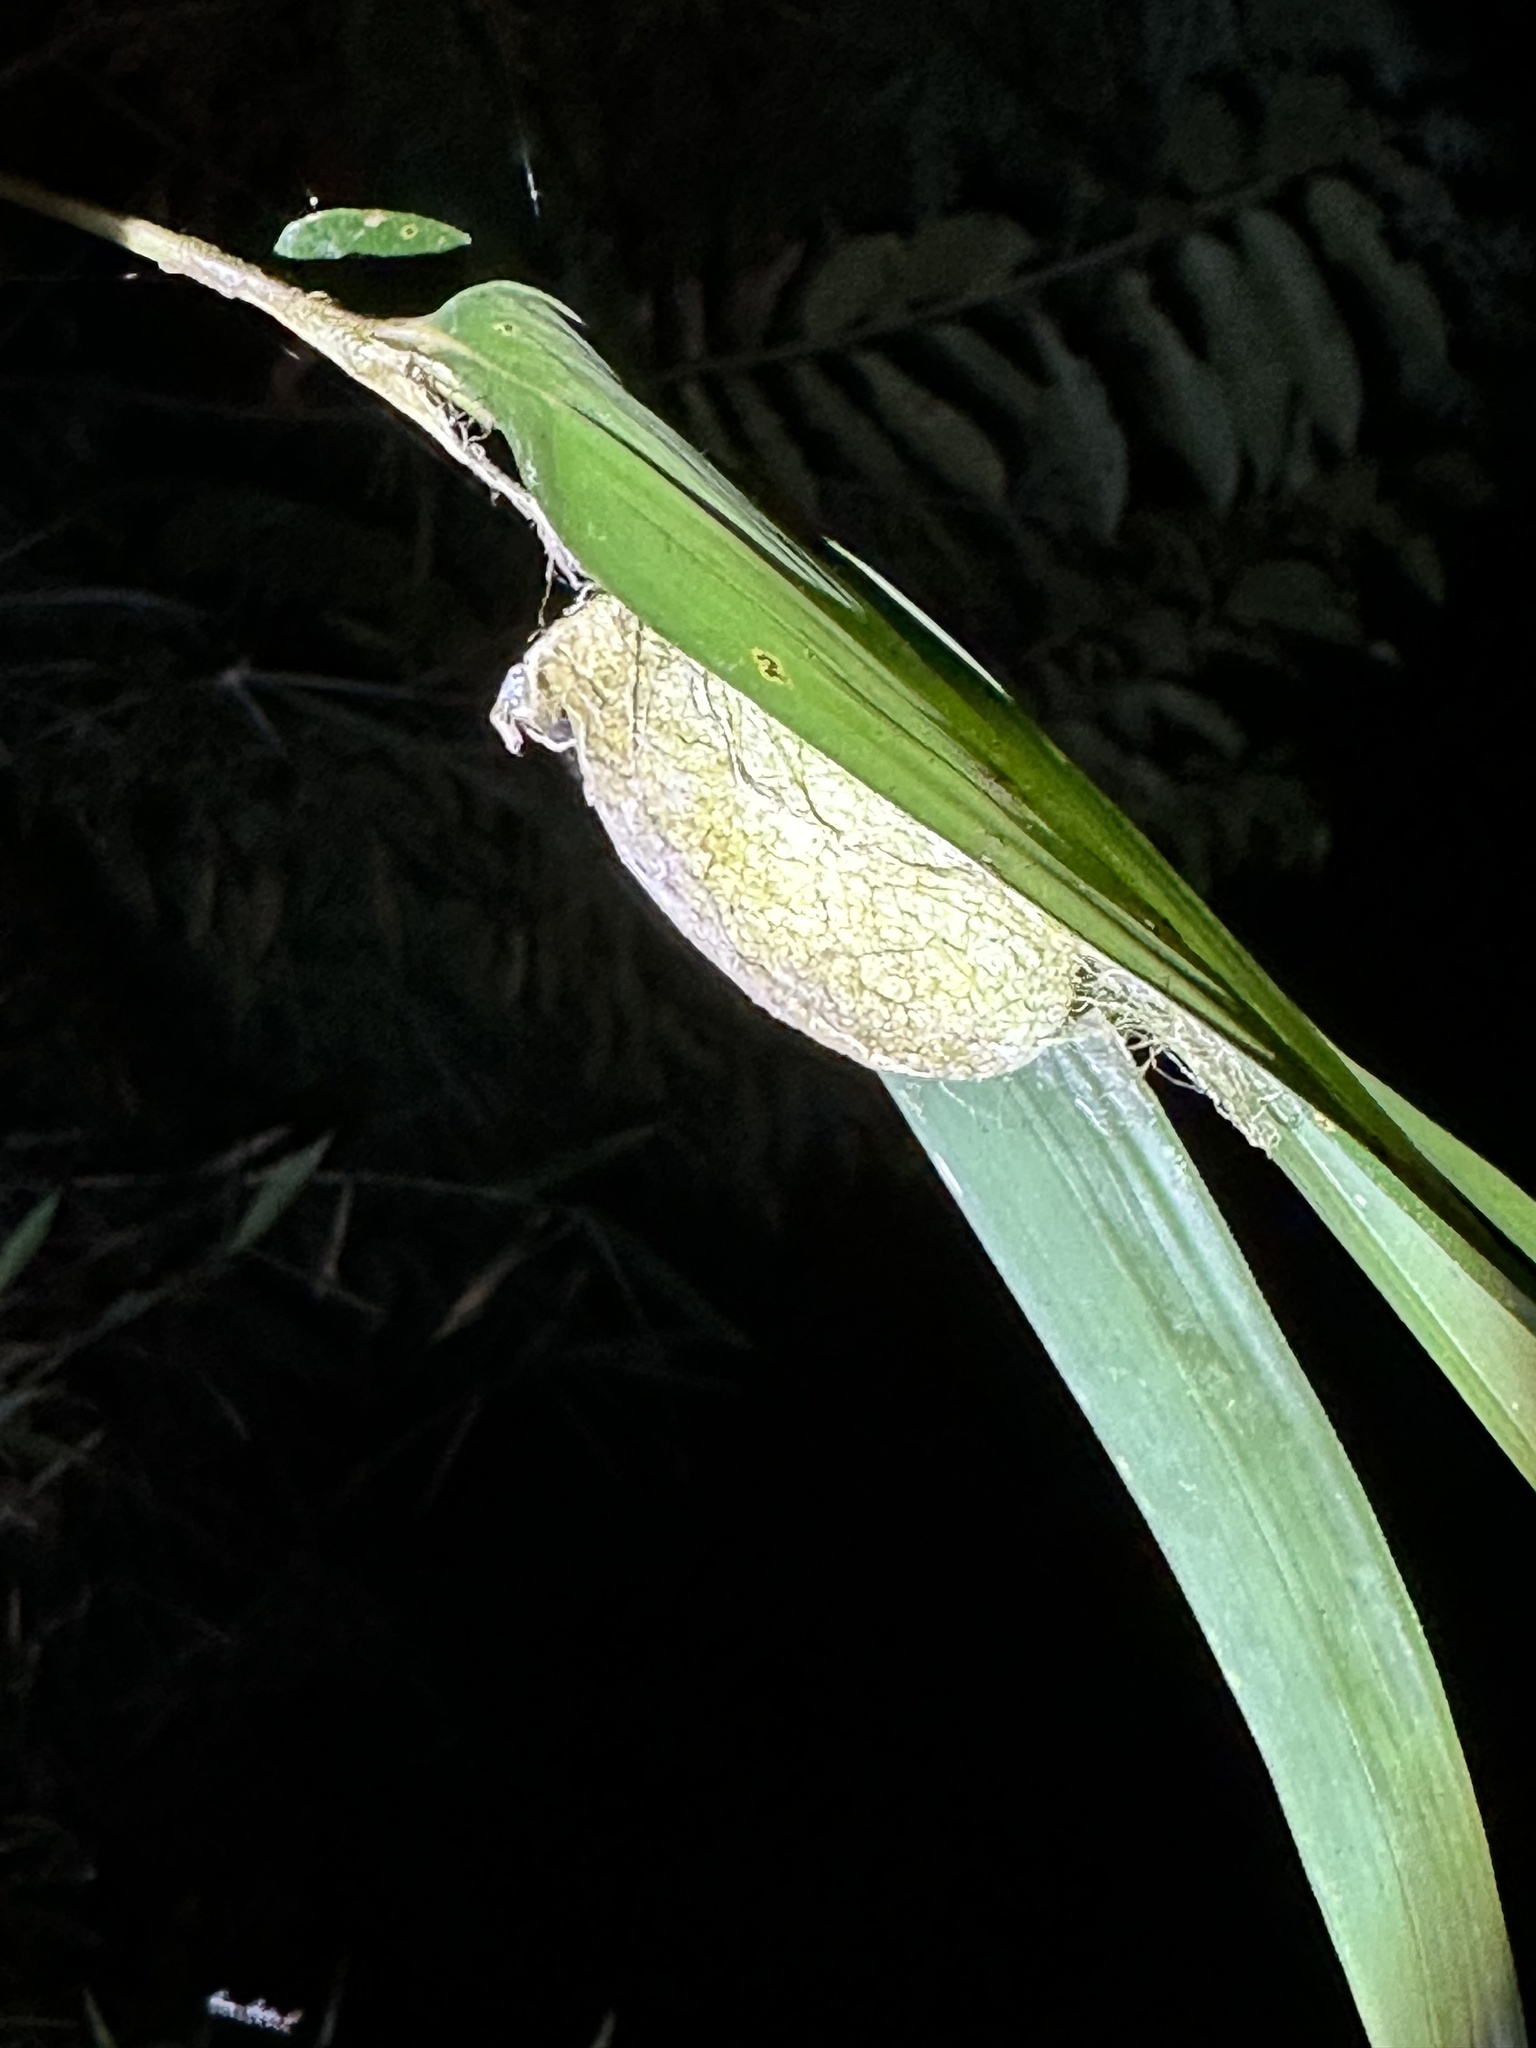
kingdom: Animalia
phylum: Arthropoda
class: Insecta
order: Lepidoptera
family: Saturniidae
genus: Antheraea
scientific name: Antheraea yamamai
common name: Japanese oak silk moth
